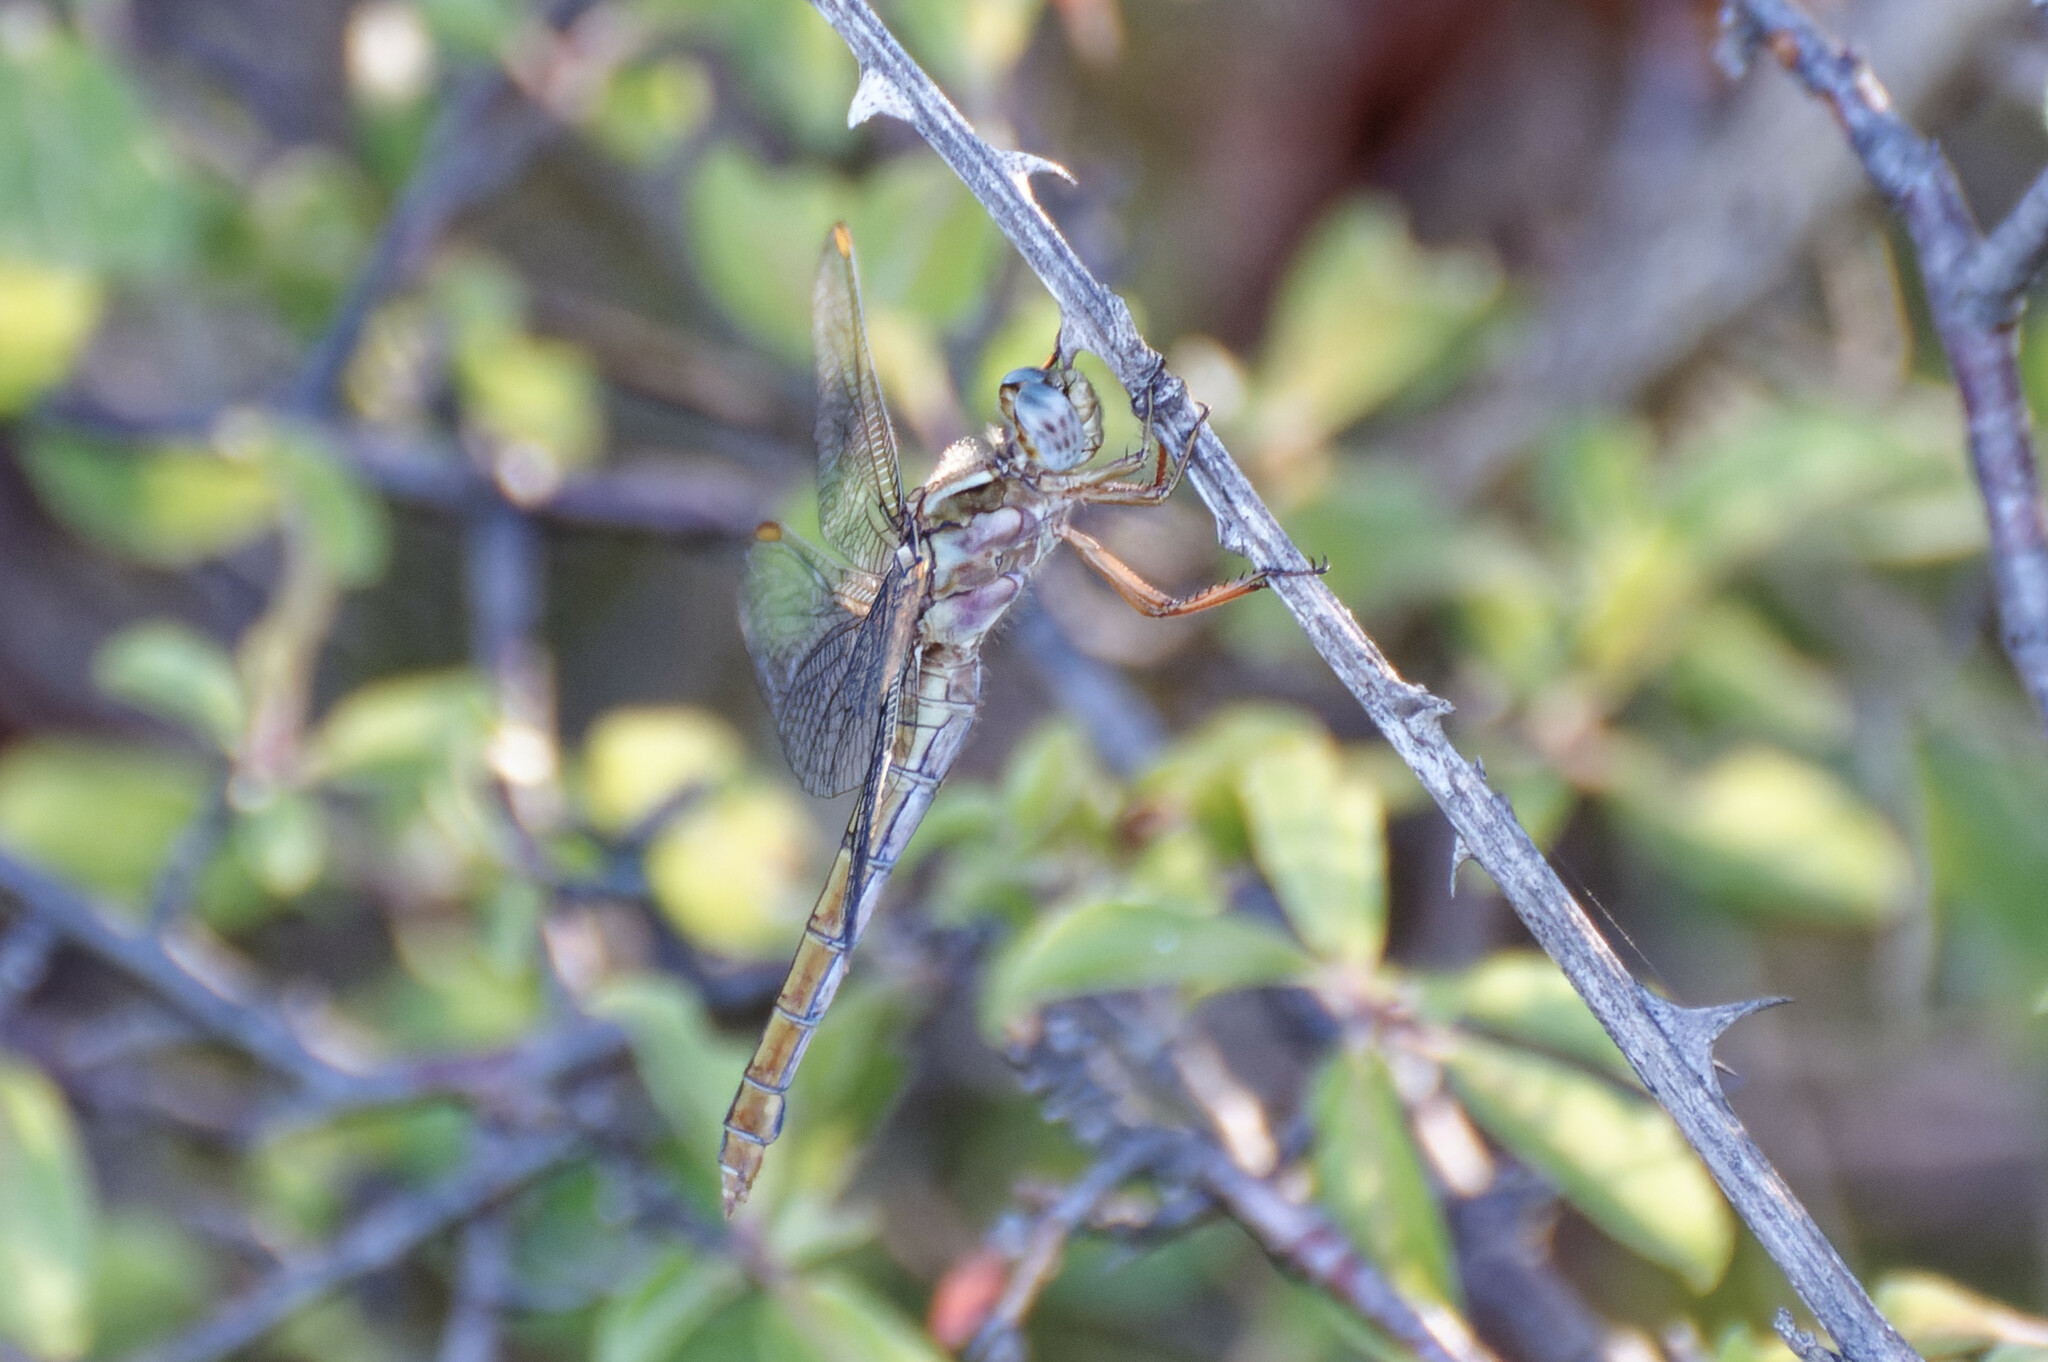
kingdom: Animalia
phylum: Arthropoda
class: Insecta
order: Odonata
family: Libellulidae
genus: Orthetrum
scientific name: Orthetrum coerulescens
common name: Keeled skimmer
